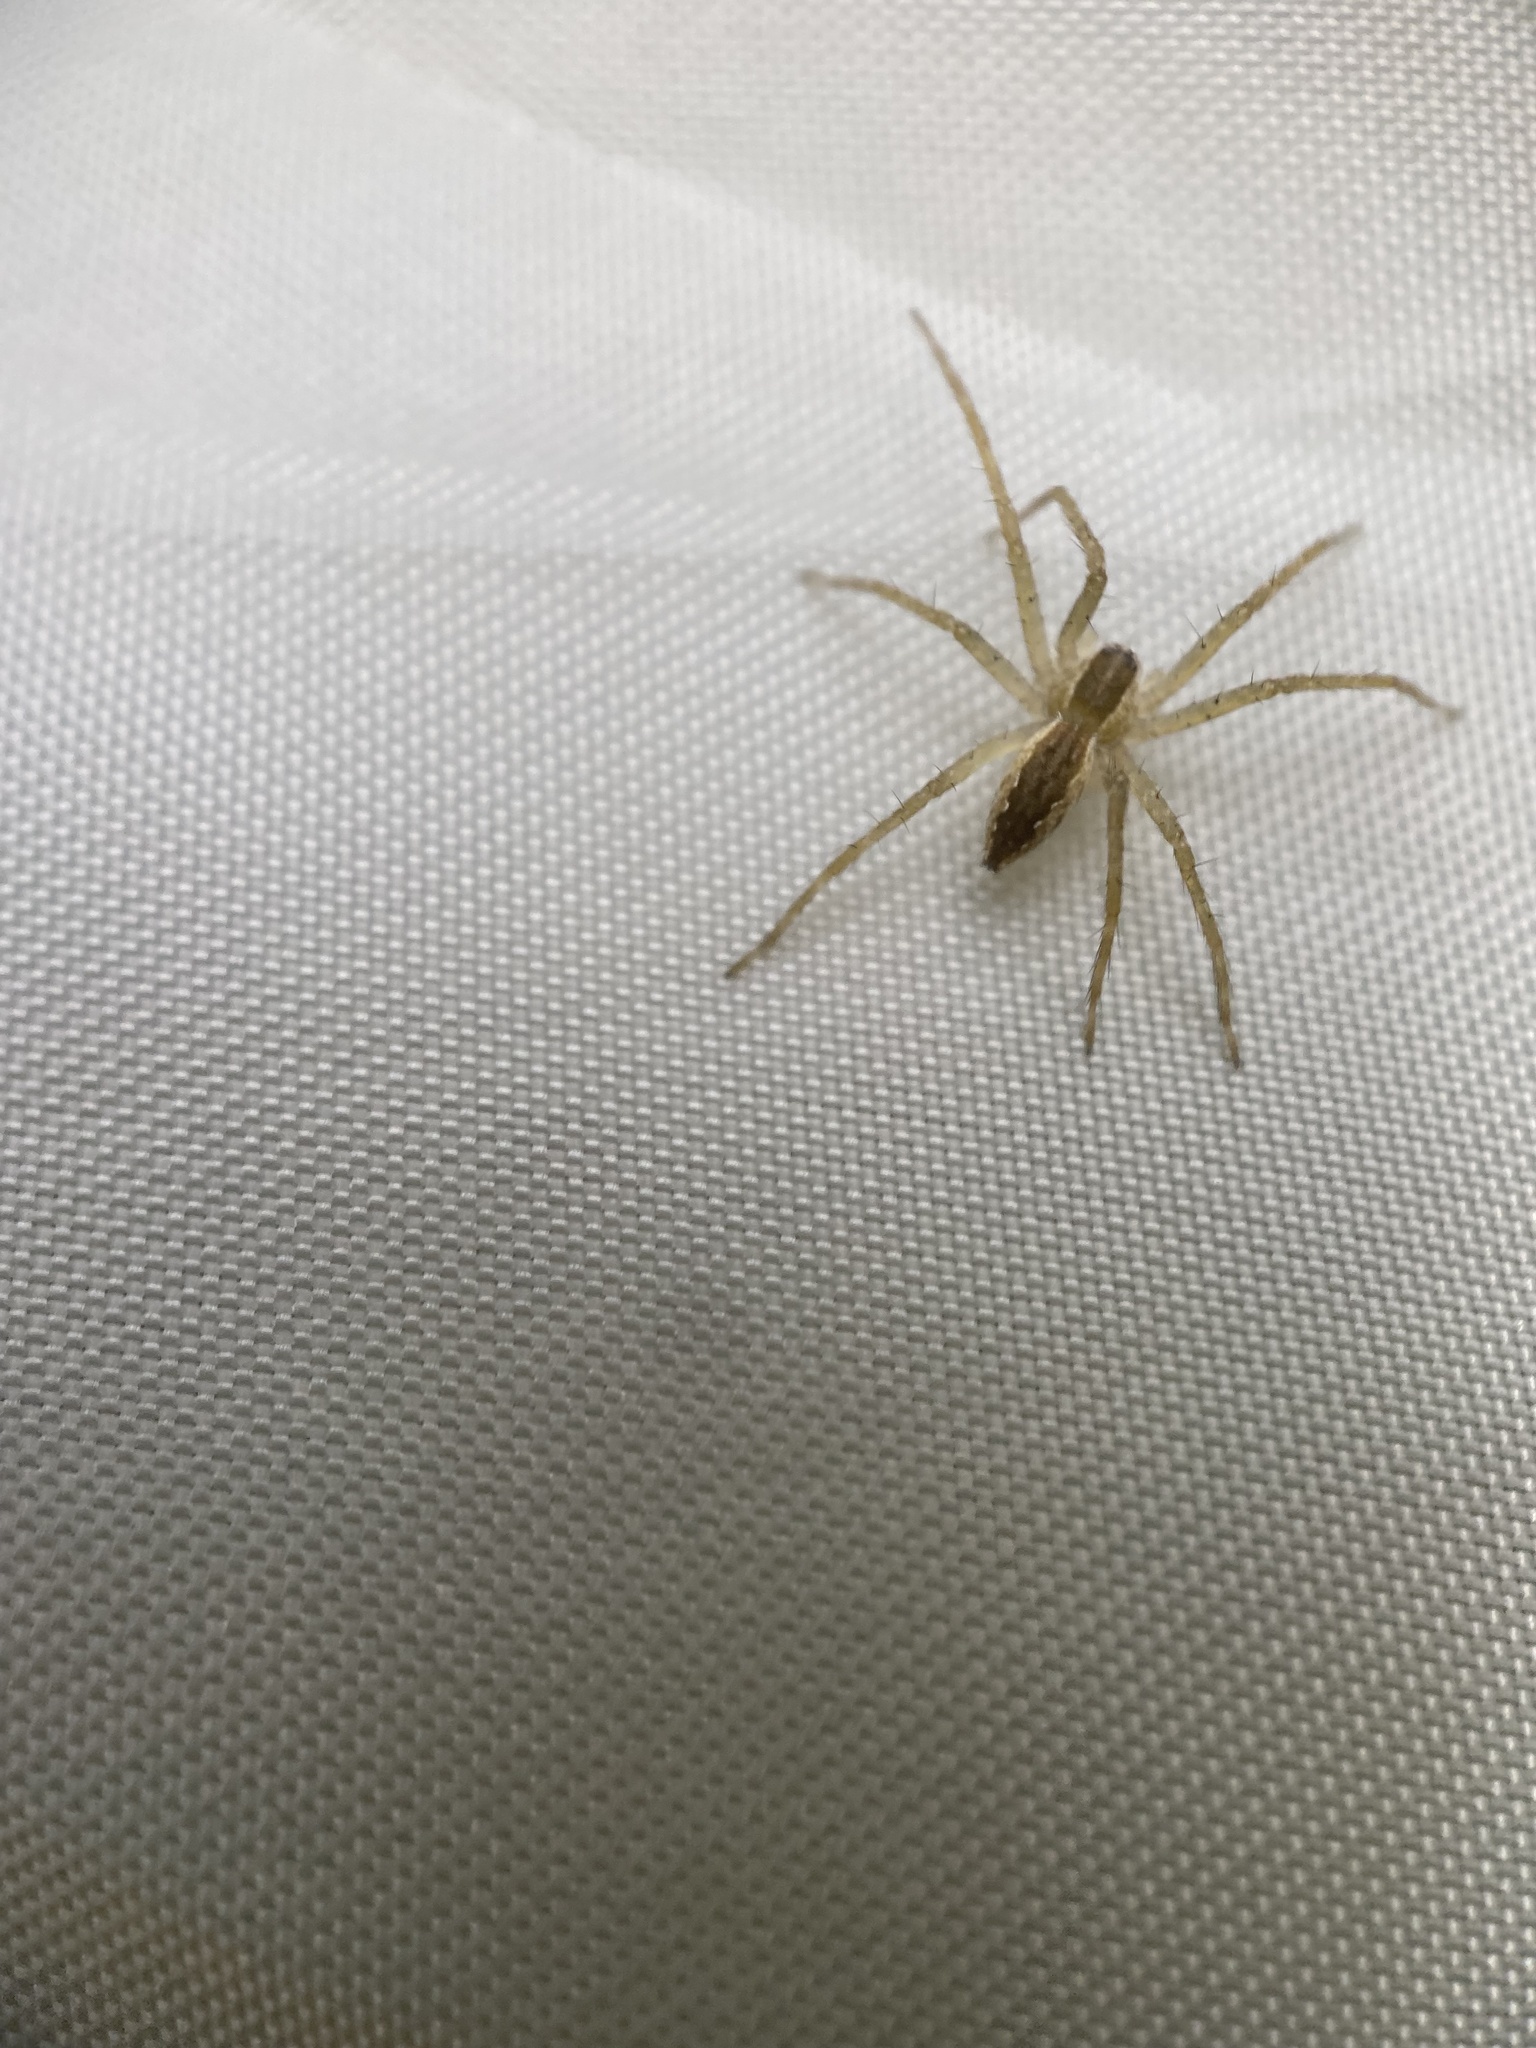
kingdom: Animalia
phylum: Arthropoda
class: Arachnida
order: Araneae
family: Pisauridae
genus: Pisaurina
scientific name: Pisaurina mira
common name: American nursery web spider
